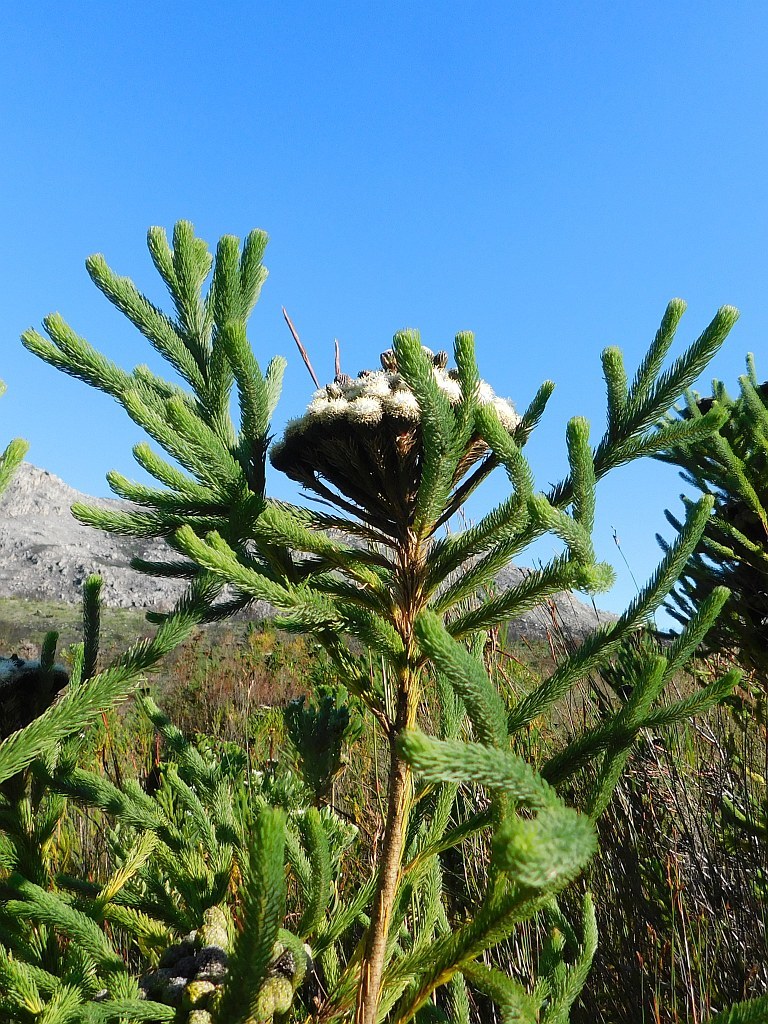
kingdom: Plantae
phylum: Tracheophyta
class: Magnoliopsida
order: Bruniales
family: Bruniaceae
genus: Berzelia
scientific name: Berzelia albiflora
